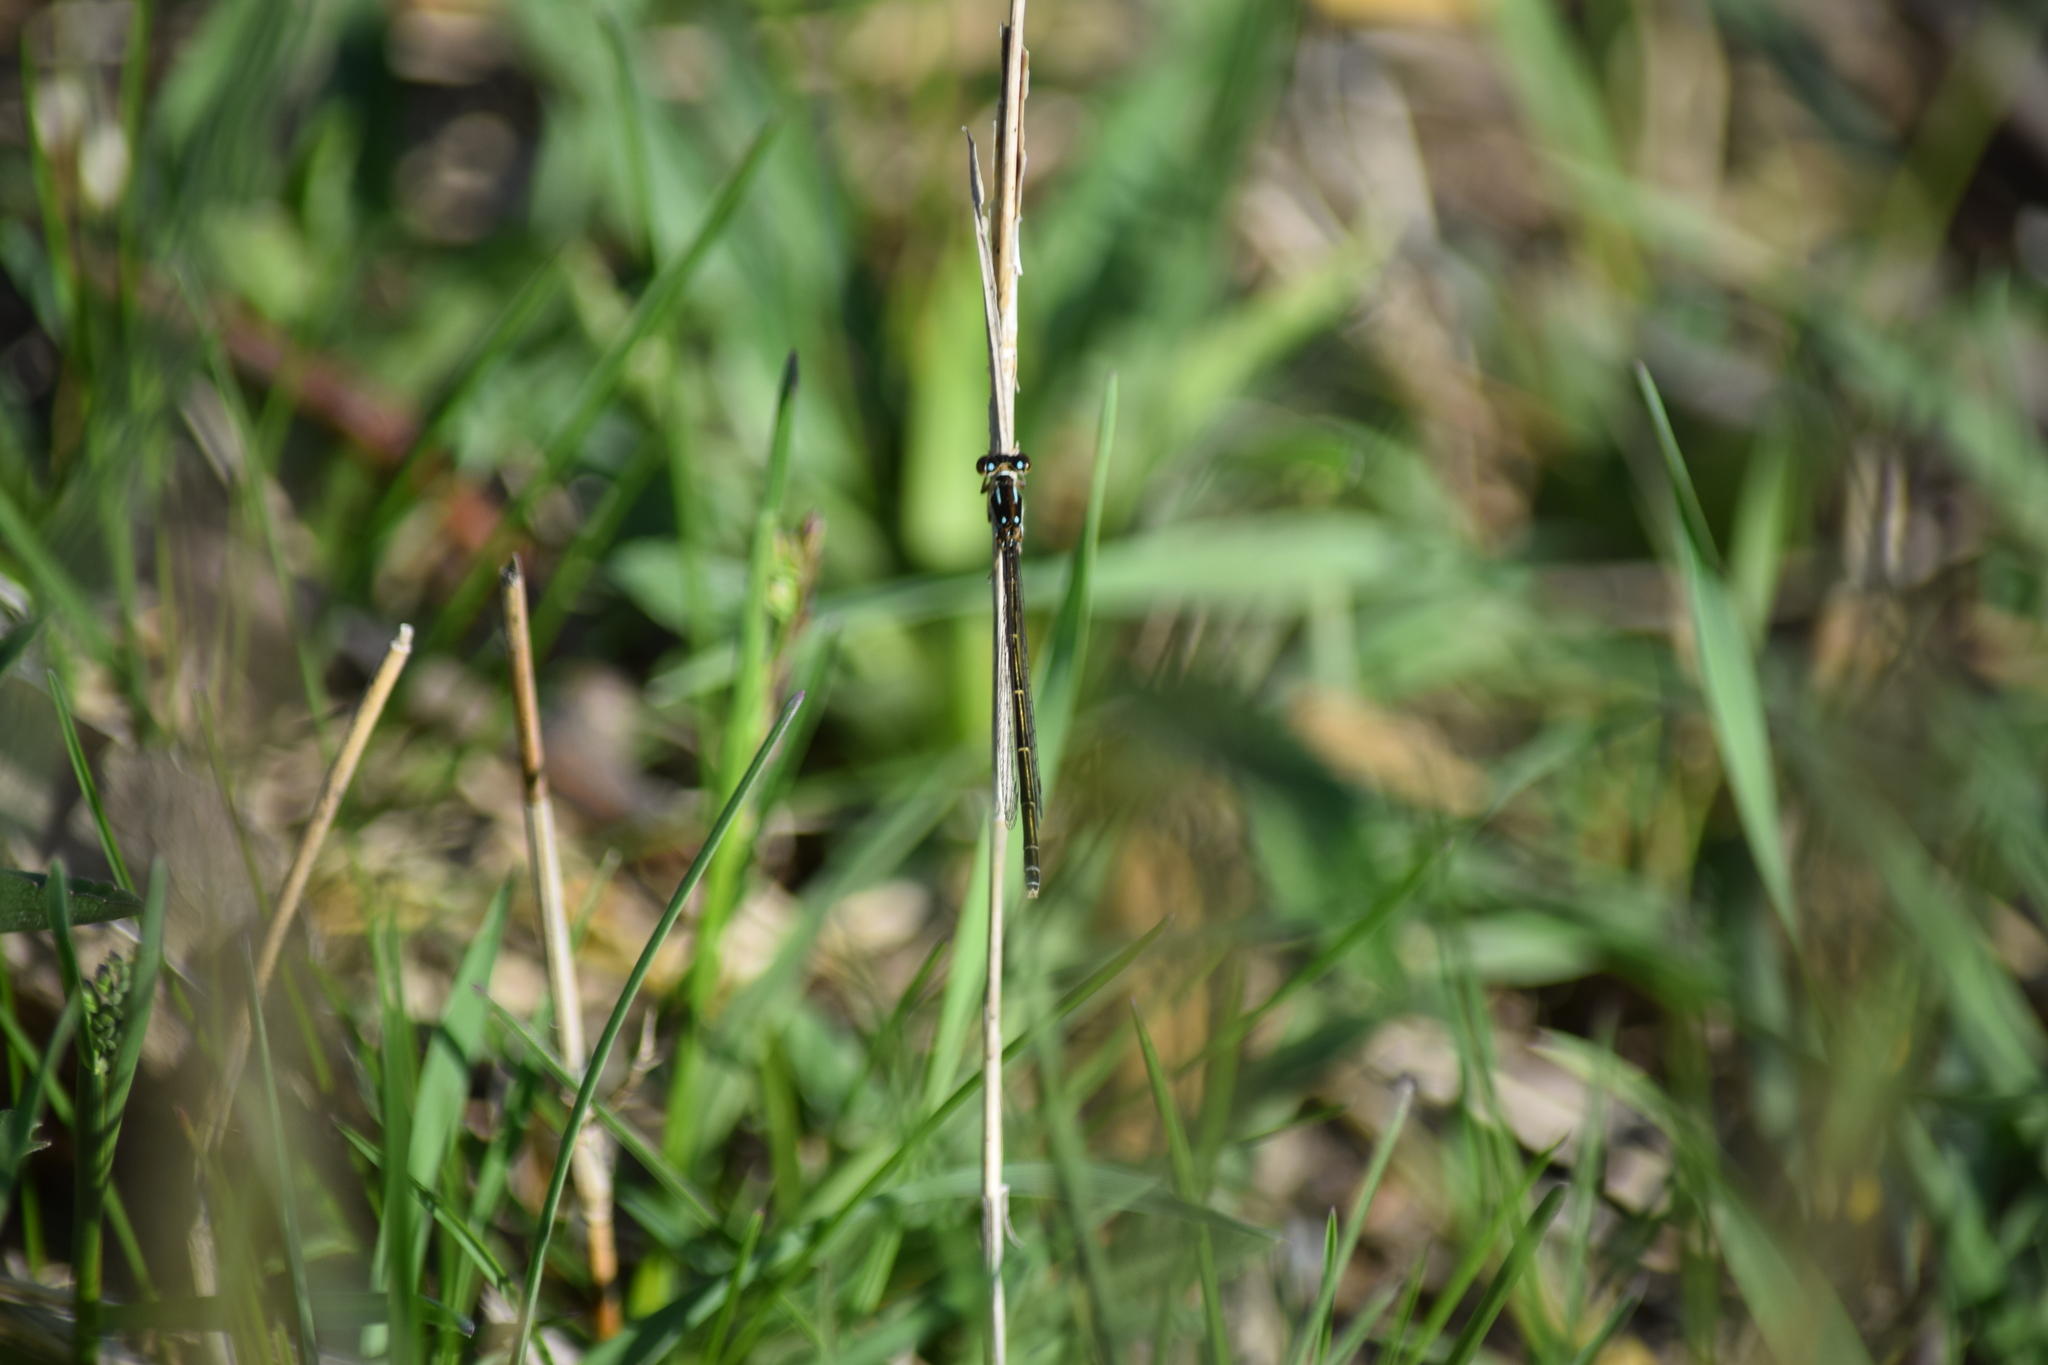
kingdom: Animalia
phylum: Arthropoda
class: Insecta
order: Odonata
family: Coenagrionidae
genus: Ischnura
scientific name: Ischnura posita
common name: Fragile forktail
